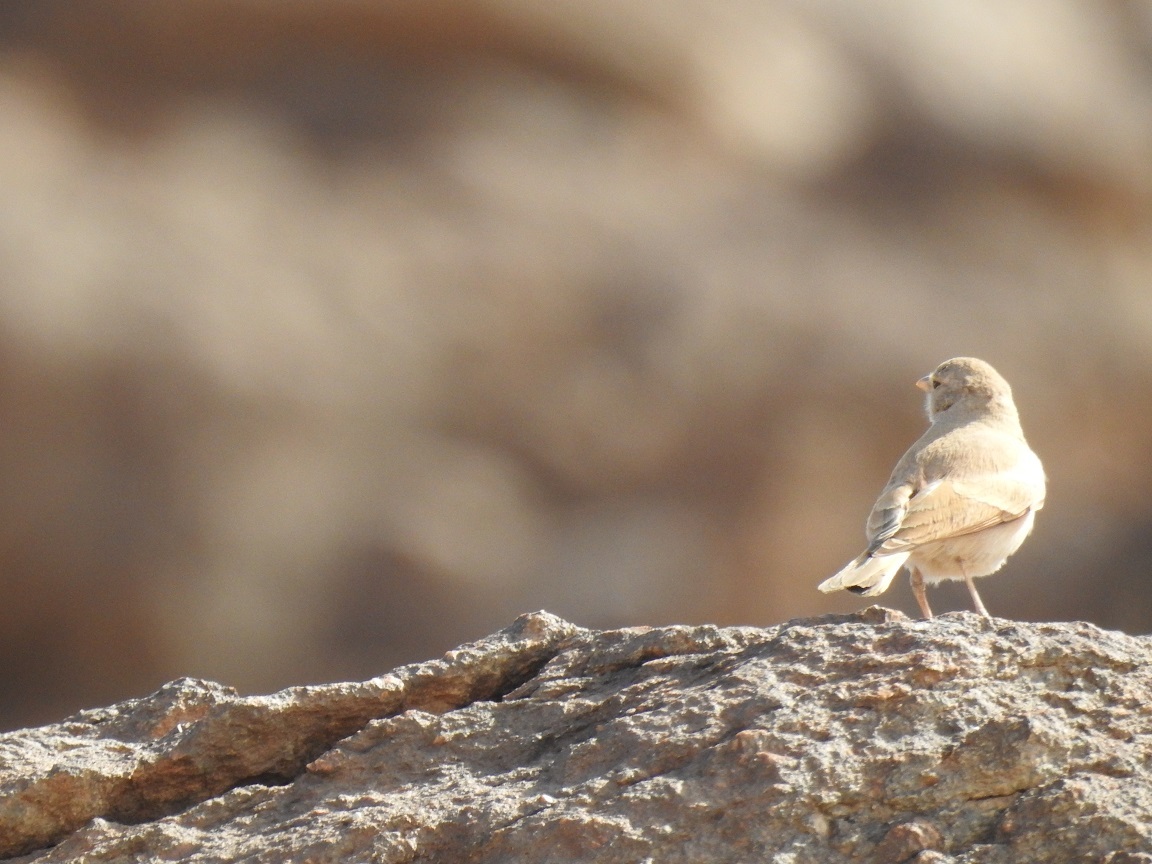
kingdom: Animalia
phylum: Chordata
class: Aves
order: Passeriformes
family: Alaudidae
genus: Ammomanes
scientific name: Ammomanes deserti
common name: Desert lark
